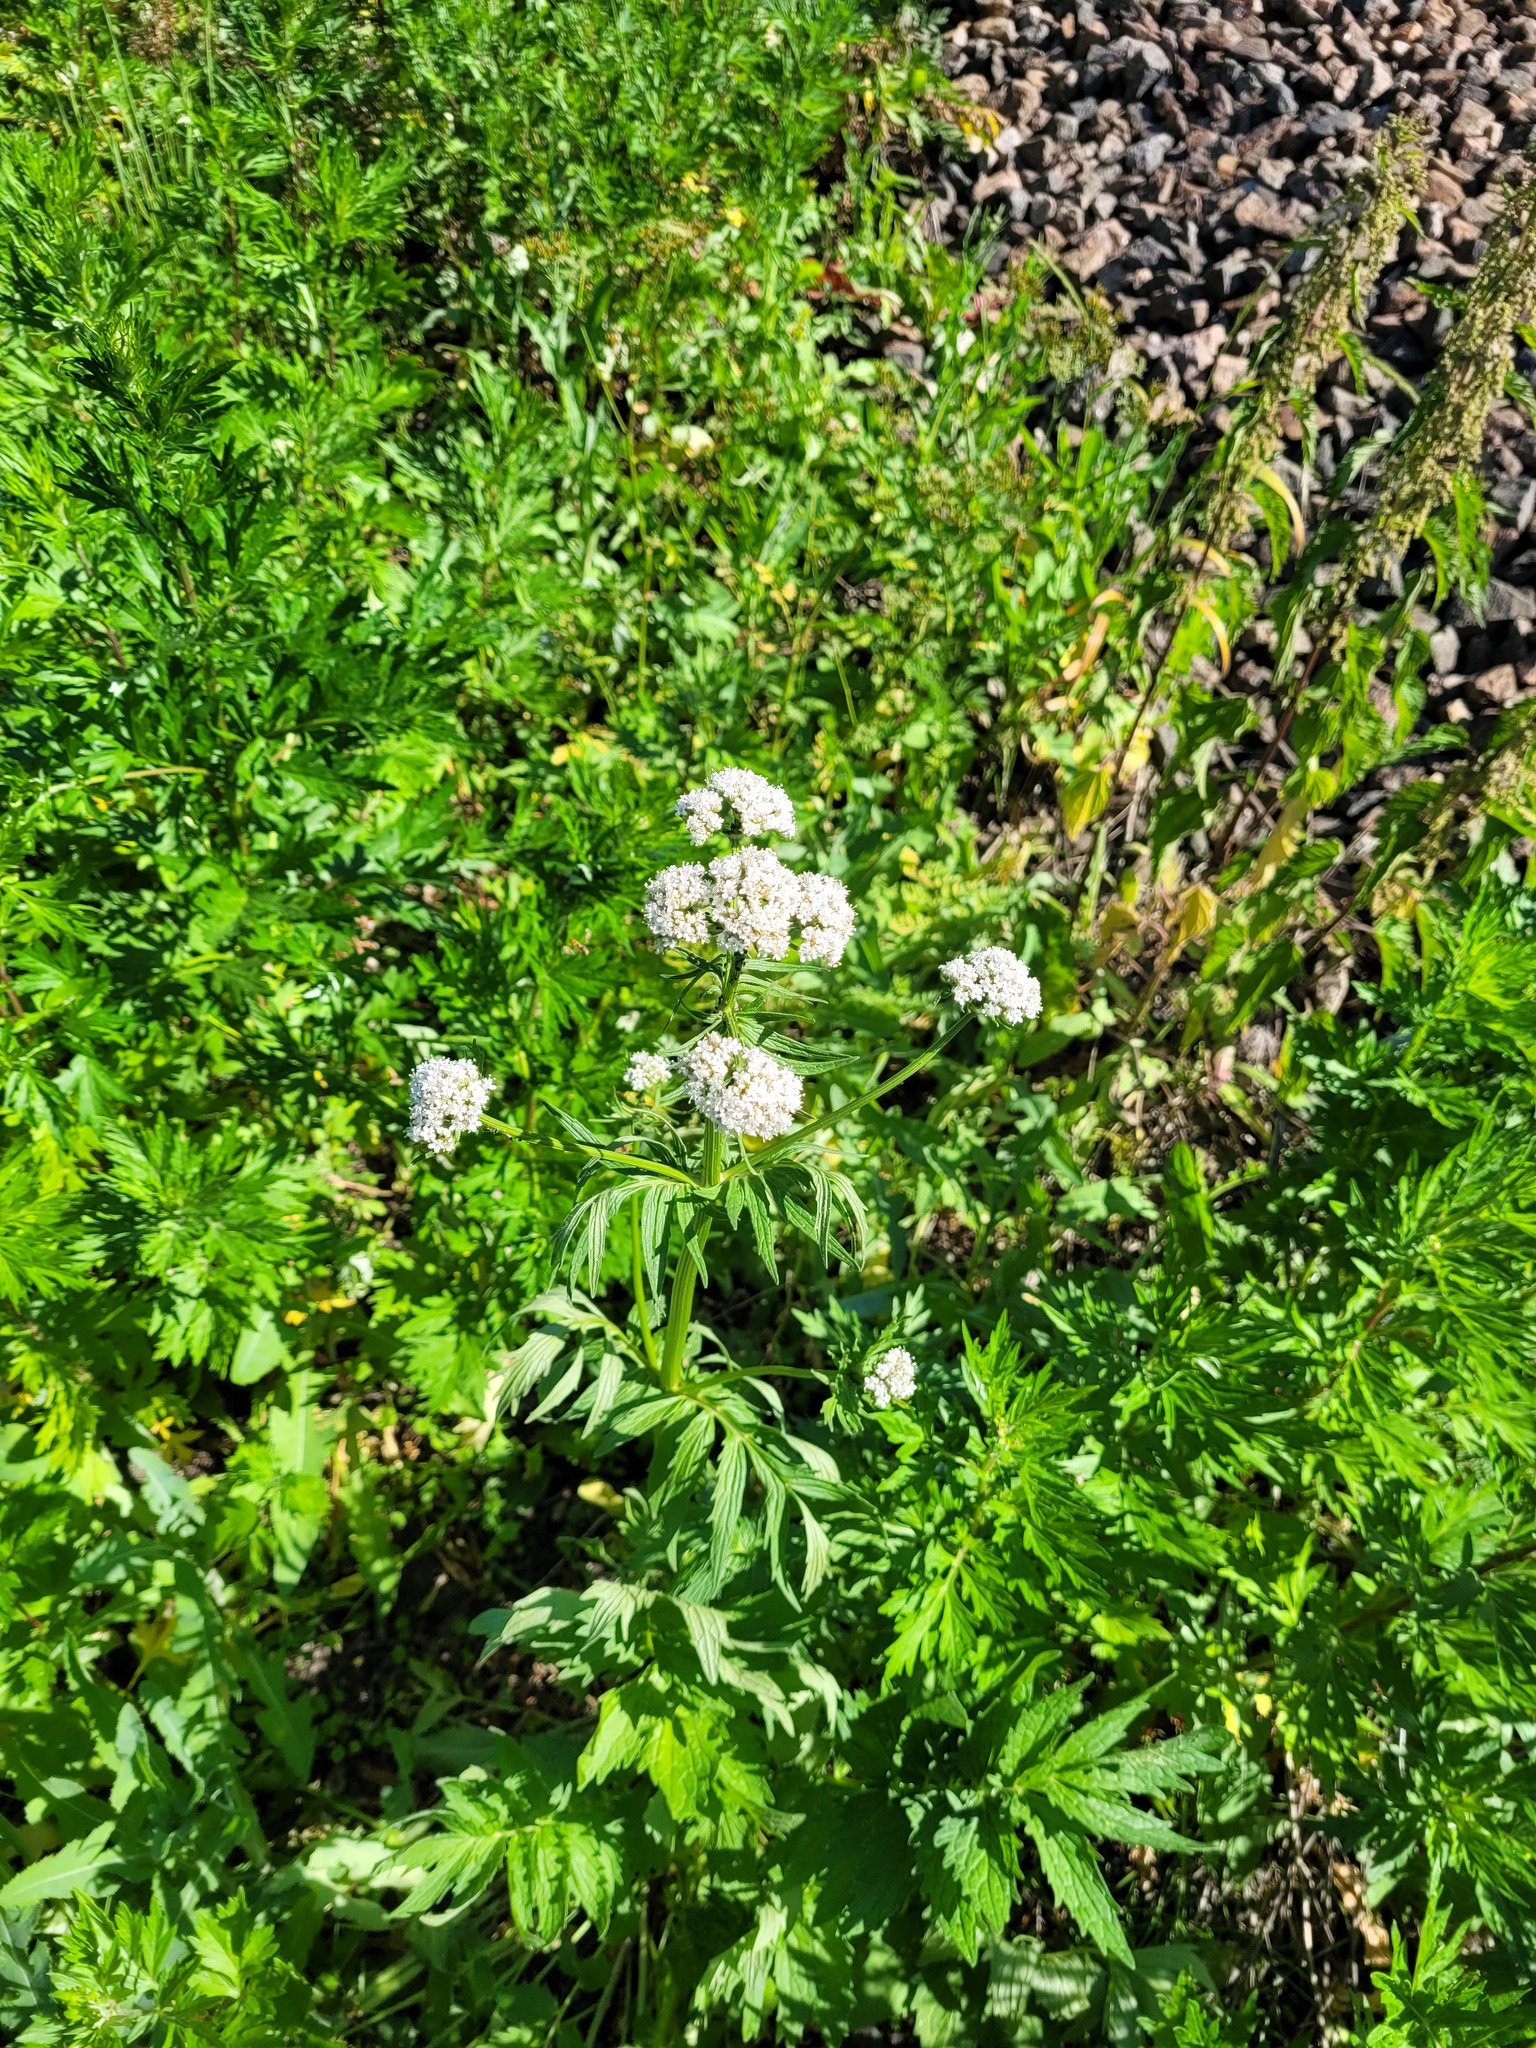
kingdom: Plantae
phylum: Tracheophyta
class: Magnoliopsida
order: Dipsacales
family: Caprifoliaceae
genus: Valeriana
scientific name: Valeriana officinalis
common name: Common valerian
